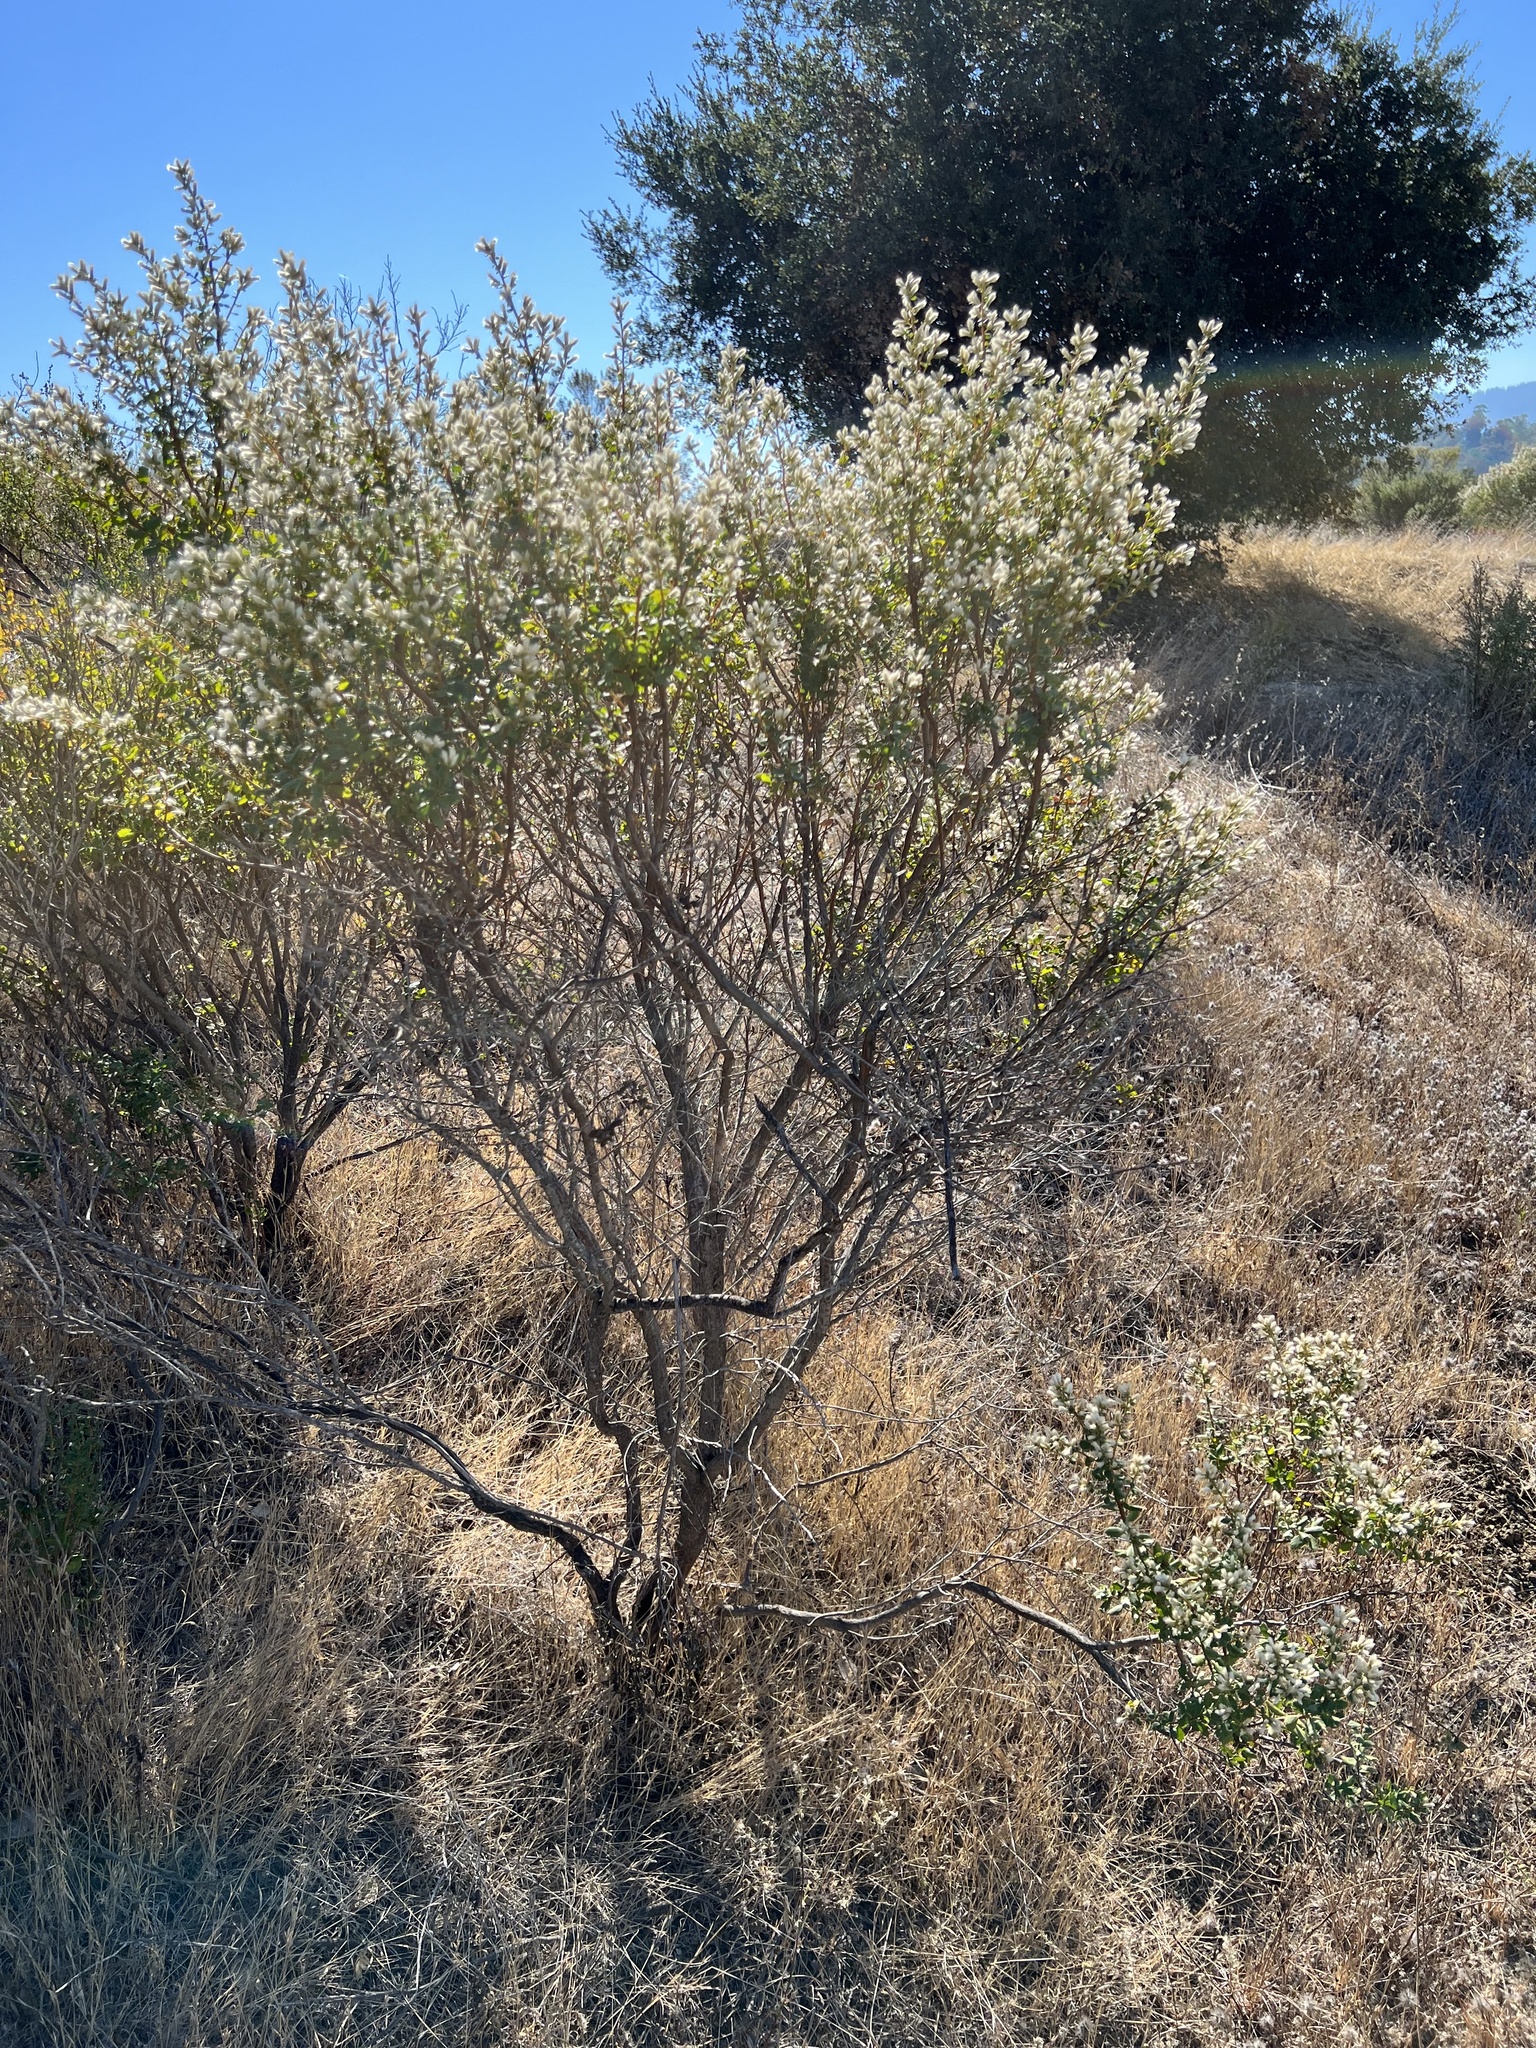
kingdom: Plantae
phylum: Tracheophyta
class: Magnoliopsida
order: Asterales
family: Asteraceae
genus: Baccharis
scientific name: Baccharis pilularis
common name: Coyotebrush
